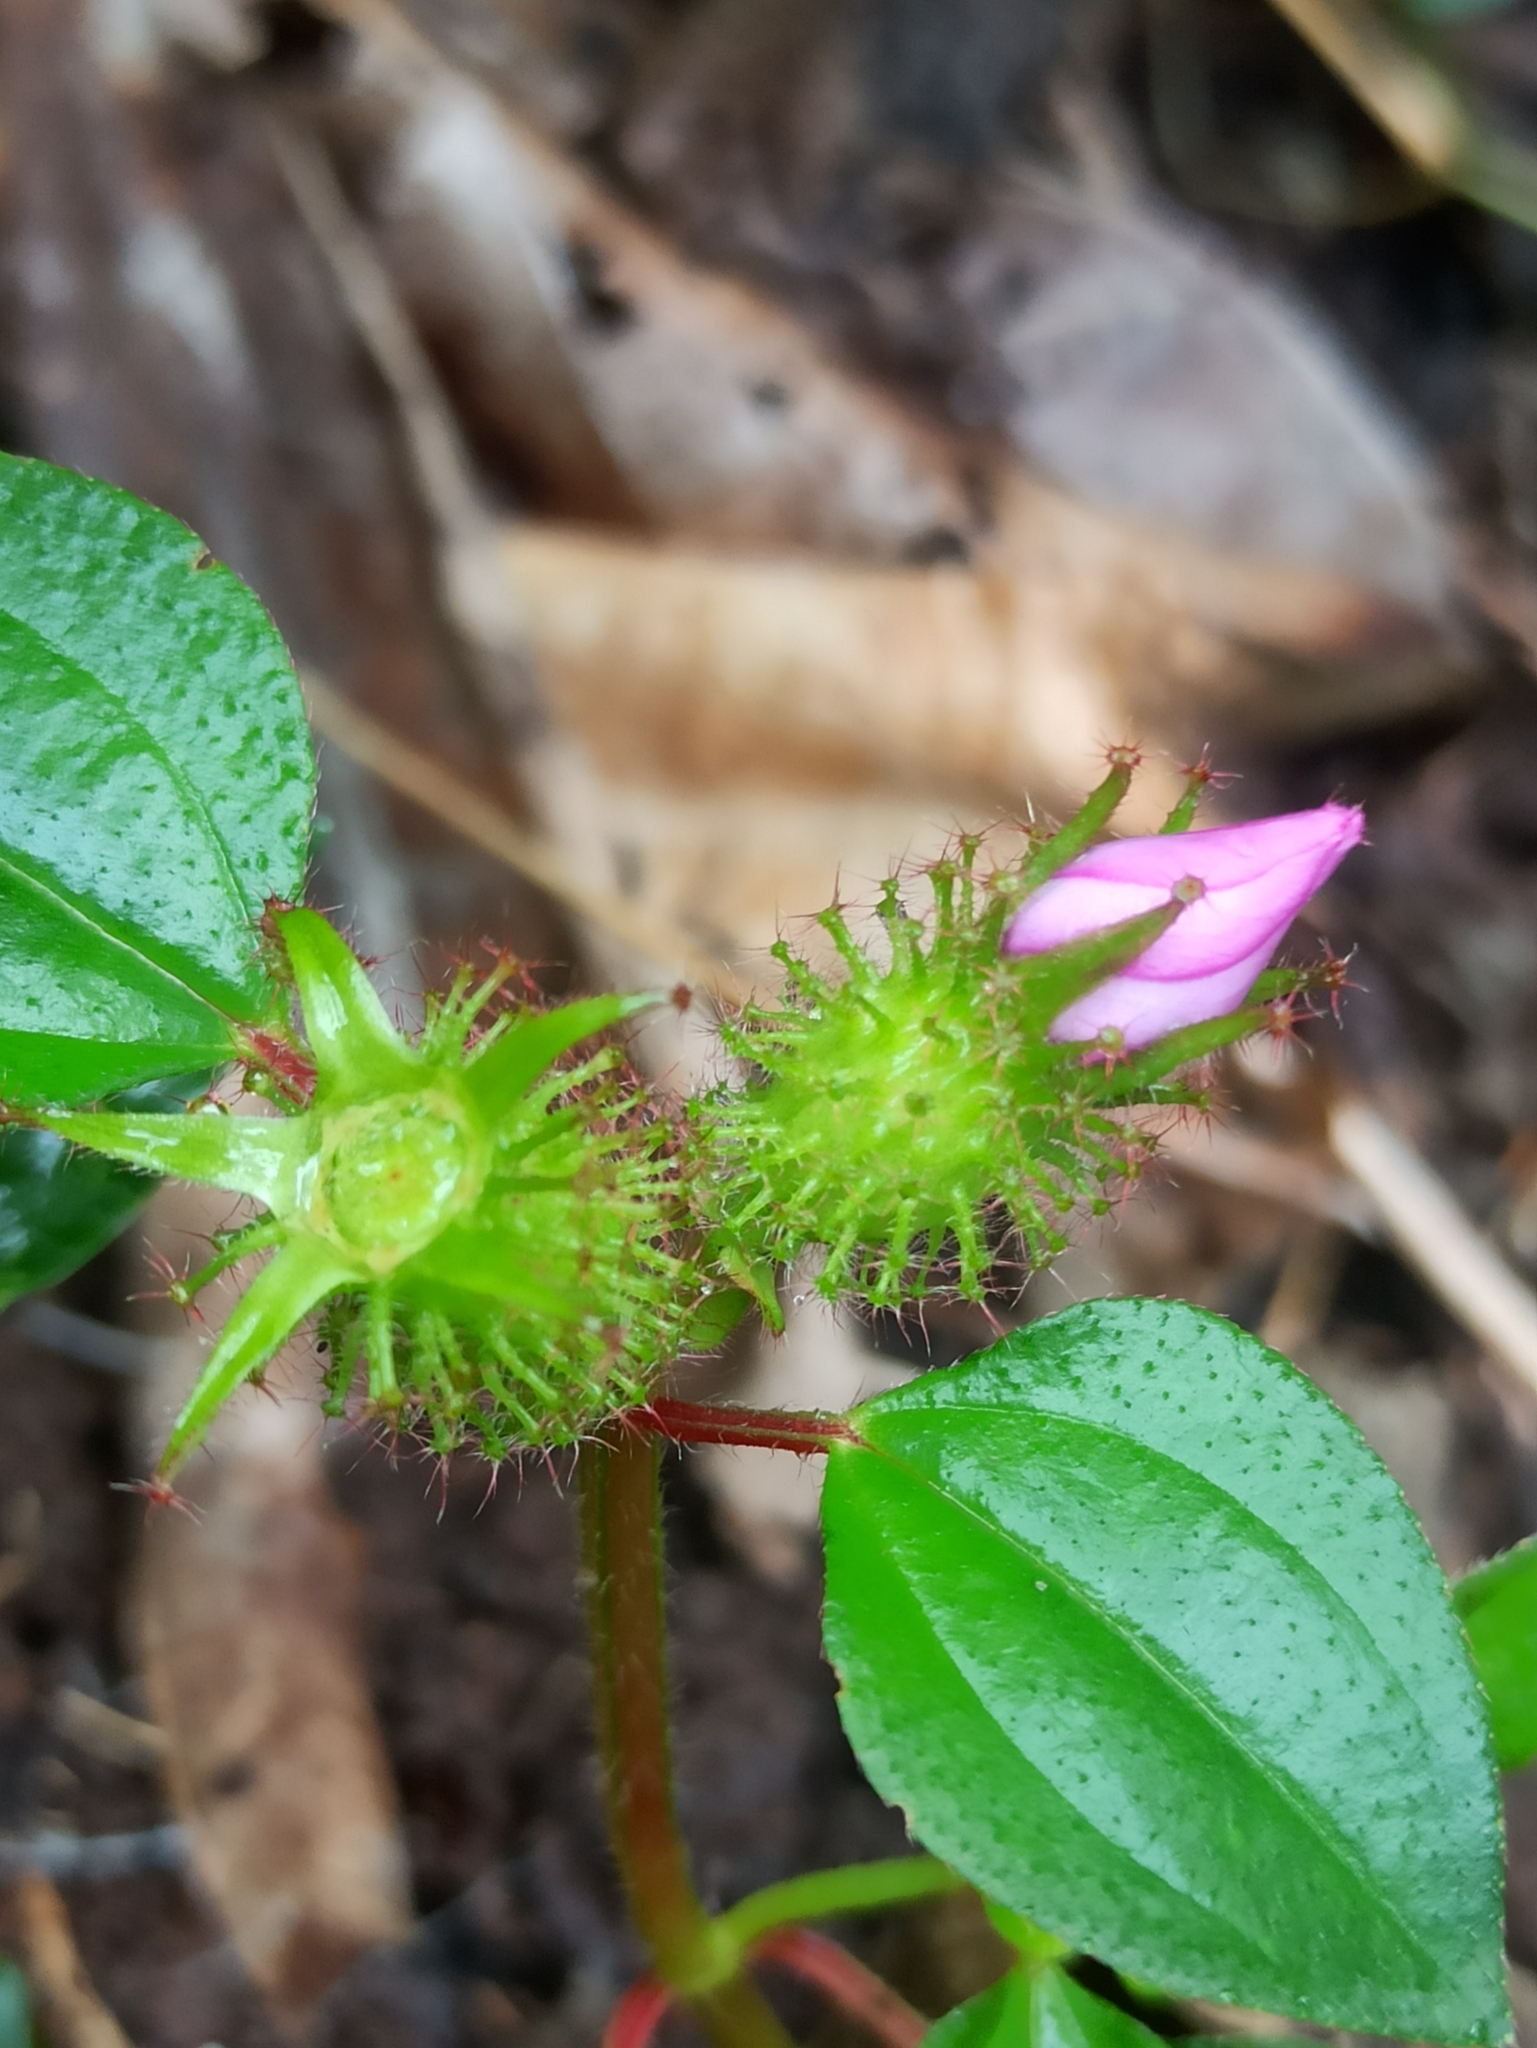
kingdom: Plantae
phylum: Tracheophyta
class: Magnoliopsida
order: Myrtales
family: Melastomataceae
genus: Heterotis
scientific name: Heterotis rotundifolia
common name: Pinklady
